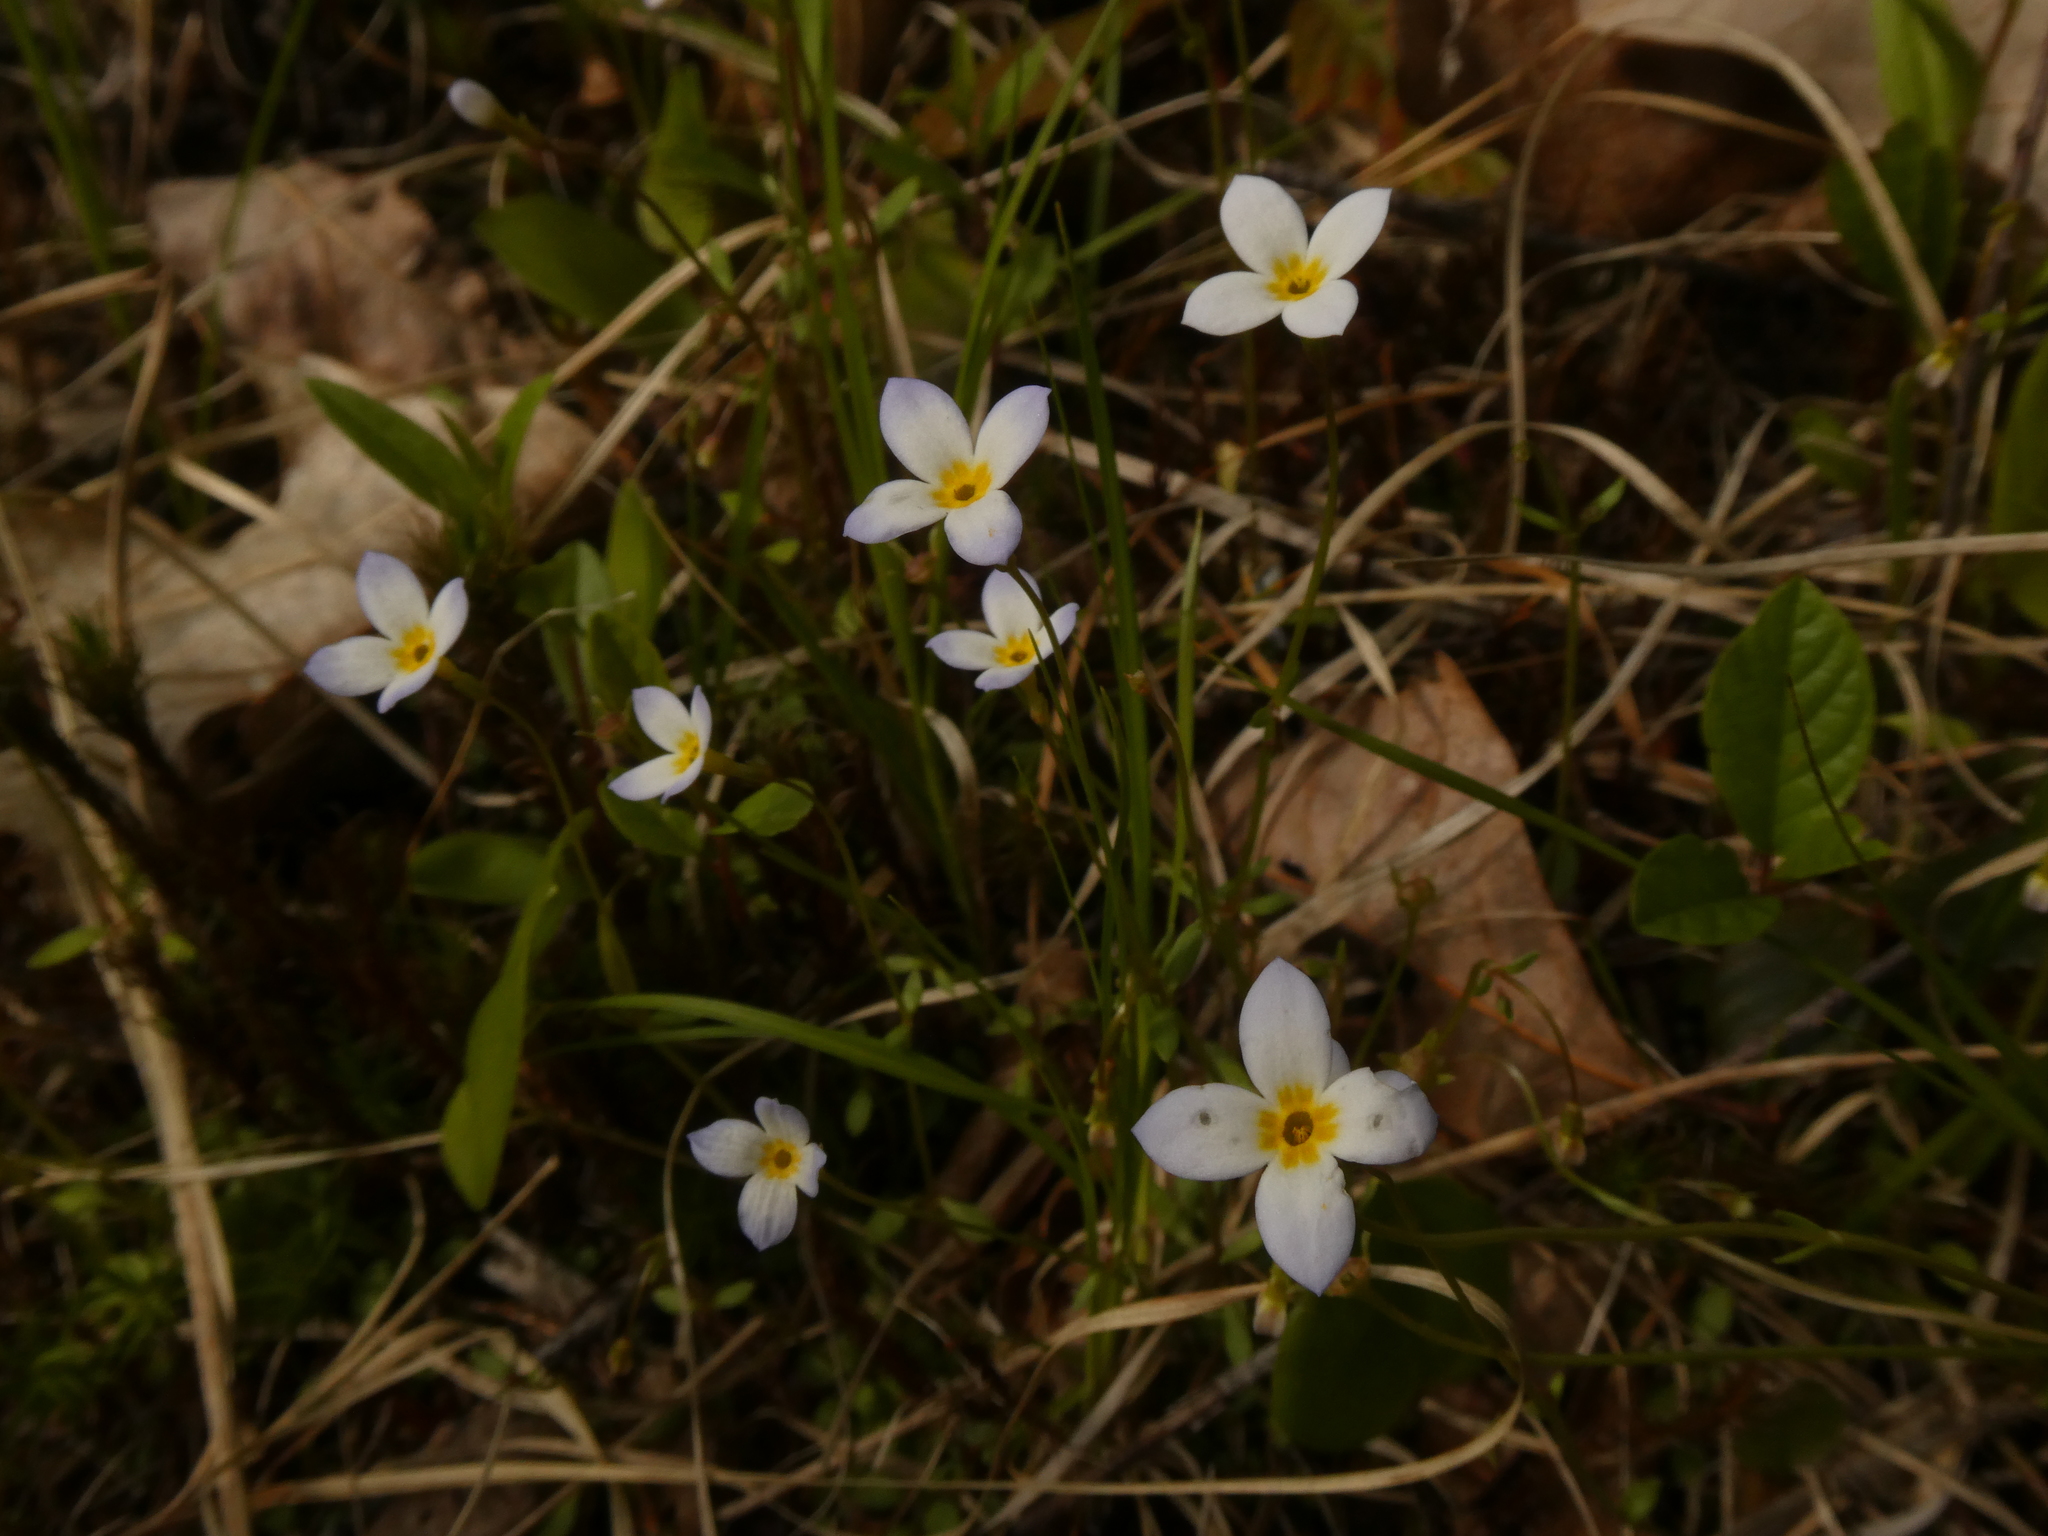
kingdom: Plantae
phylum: Tracheophyta
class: Magnoliopsida
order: Gentianales
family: Rubiaceae
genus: Houstonia
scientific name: Houstonia caerulea
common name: Bluets
